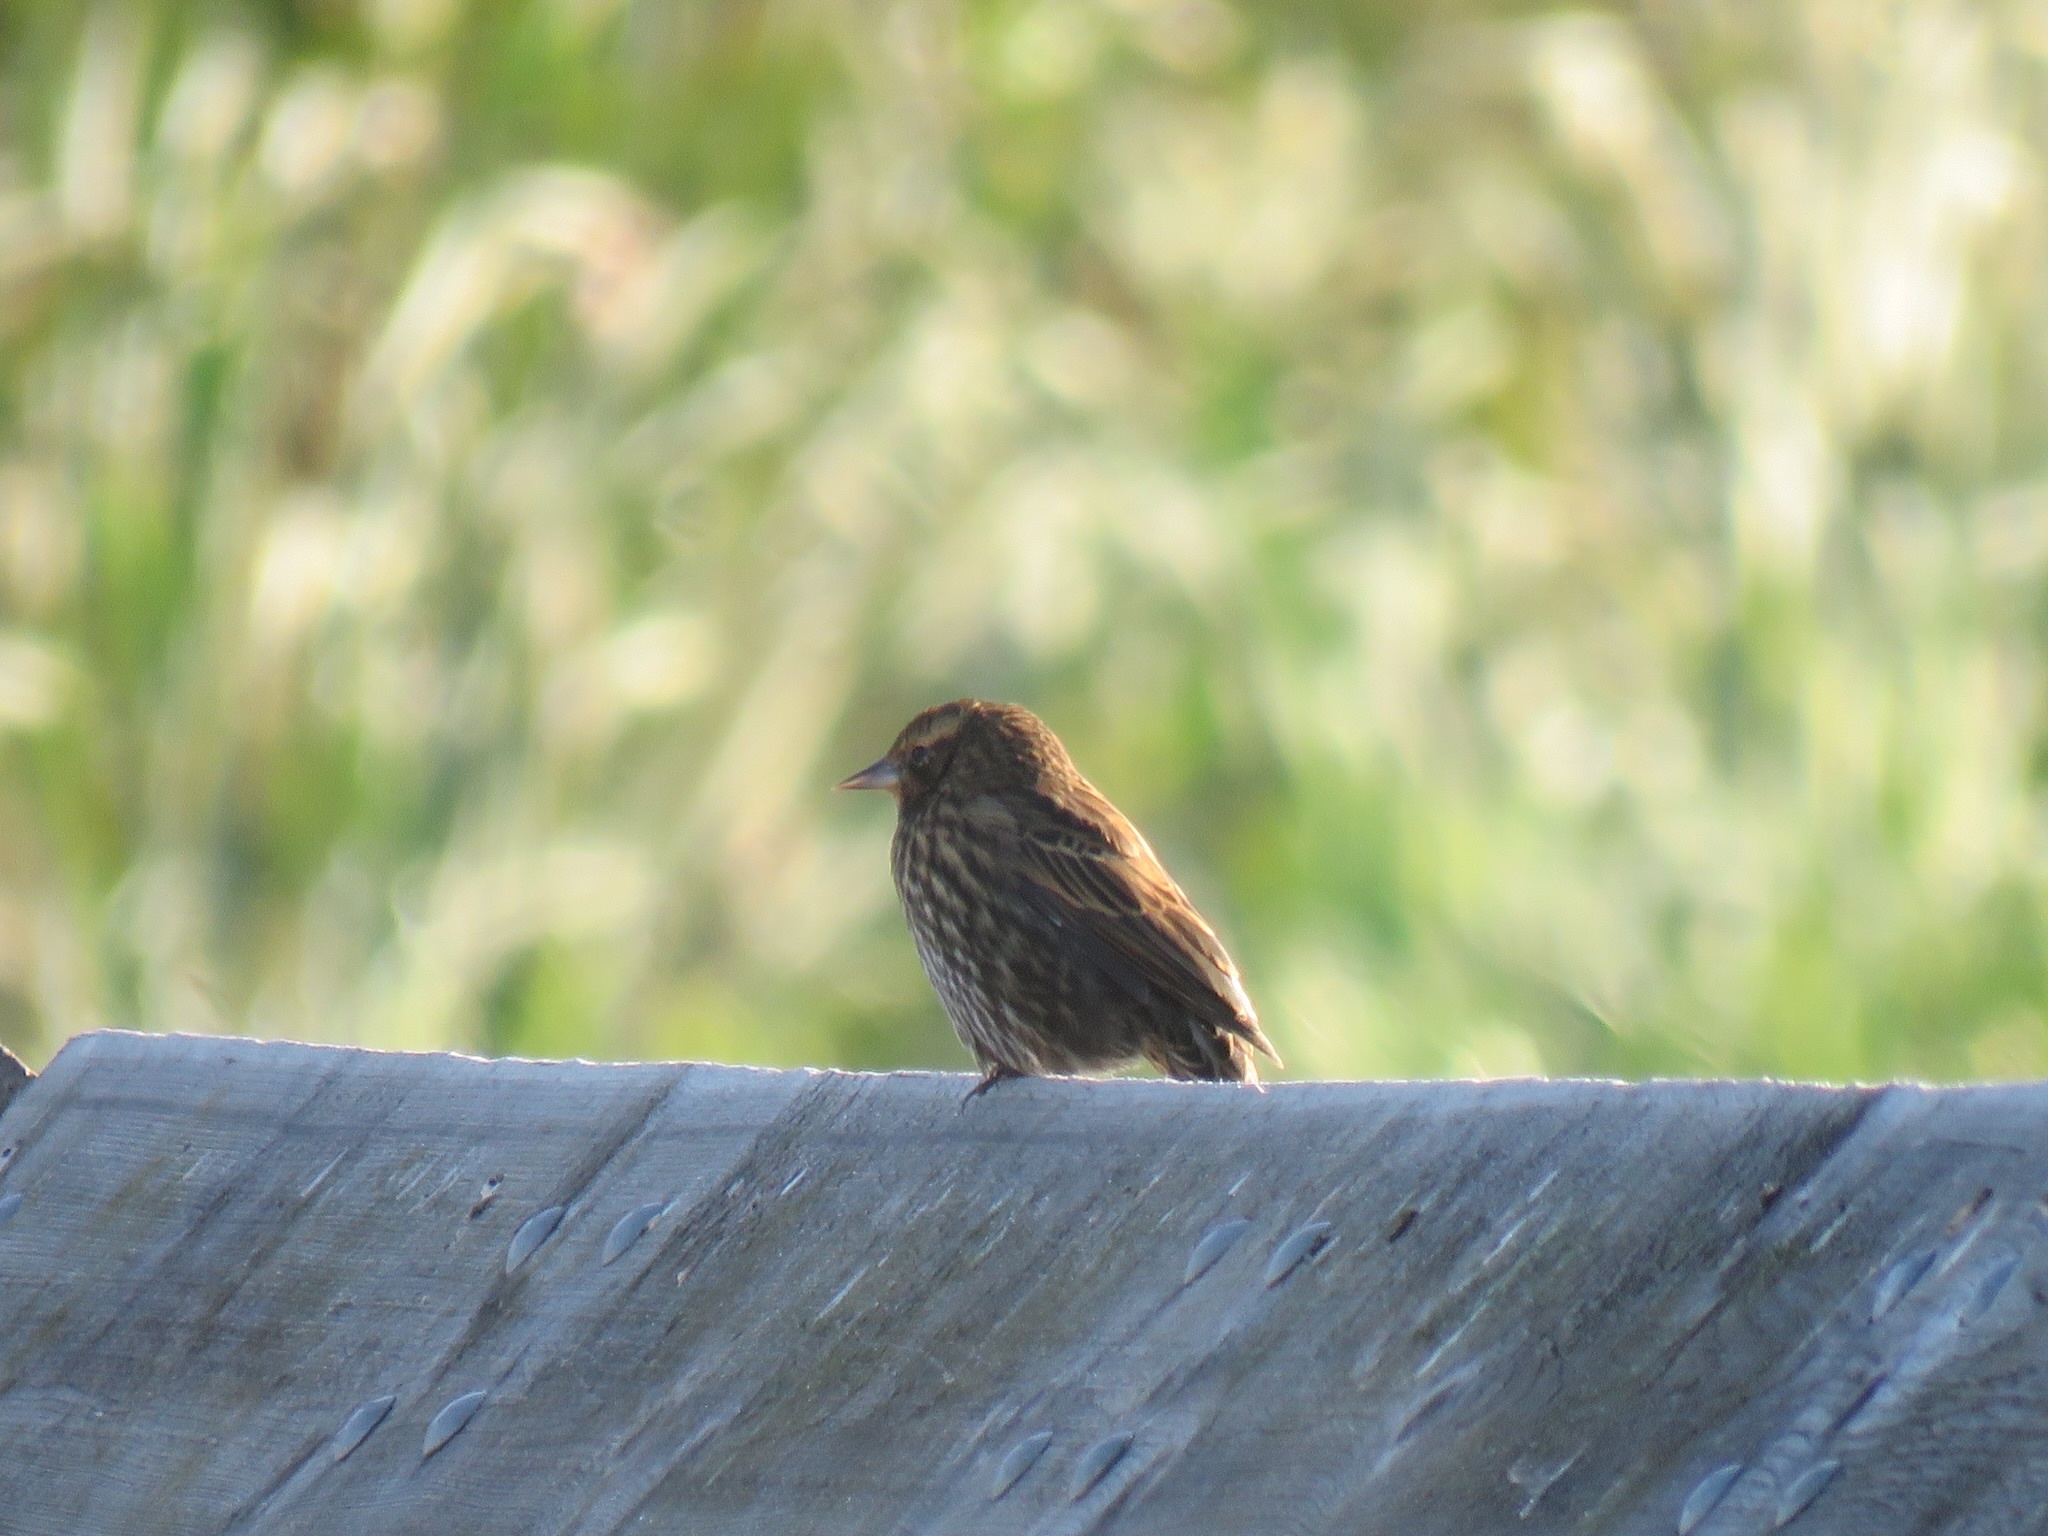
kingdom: Animalia
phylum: Chordata
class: Aves
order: Passeriformes
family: Icteridae
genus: Agelaius
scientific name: Agelaius phoeniceus
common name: Red-winged blackbird
